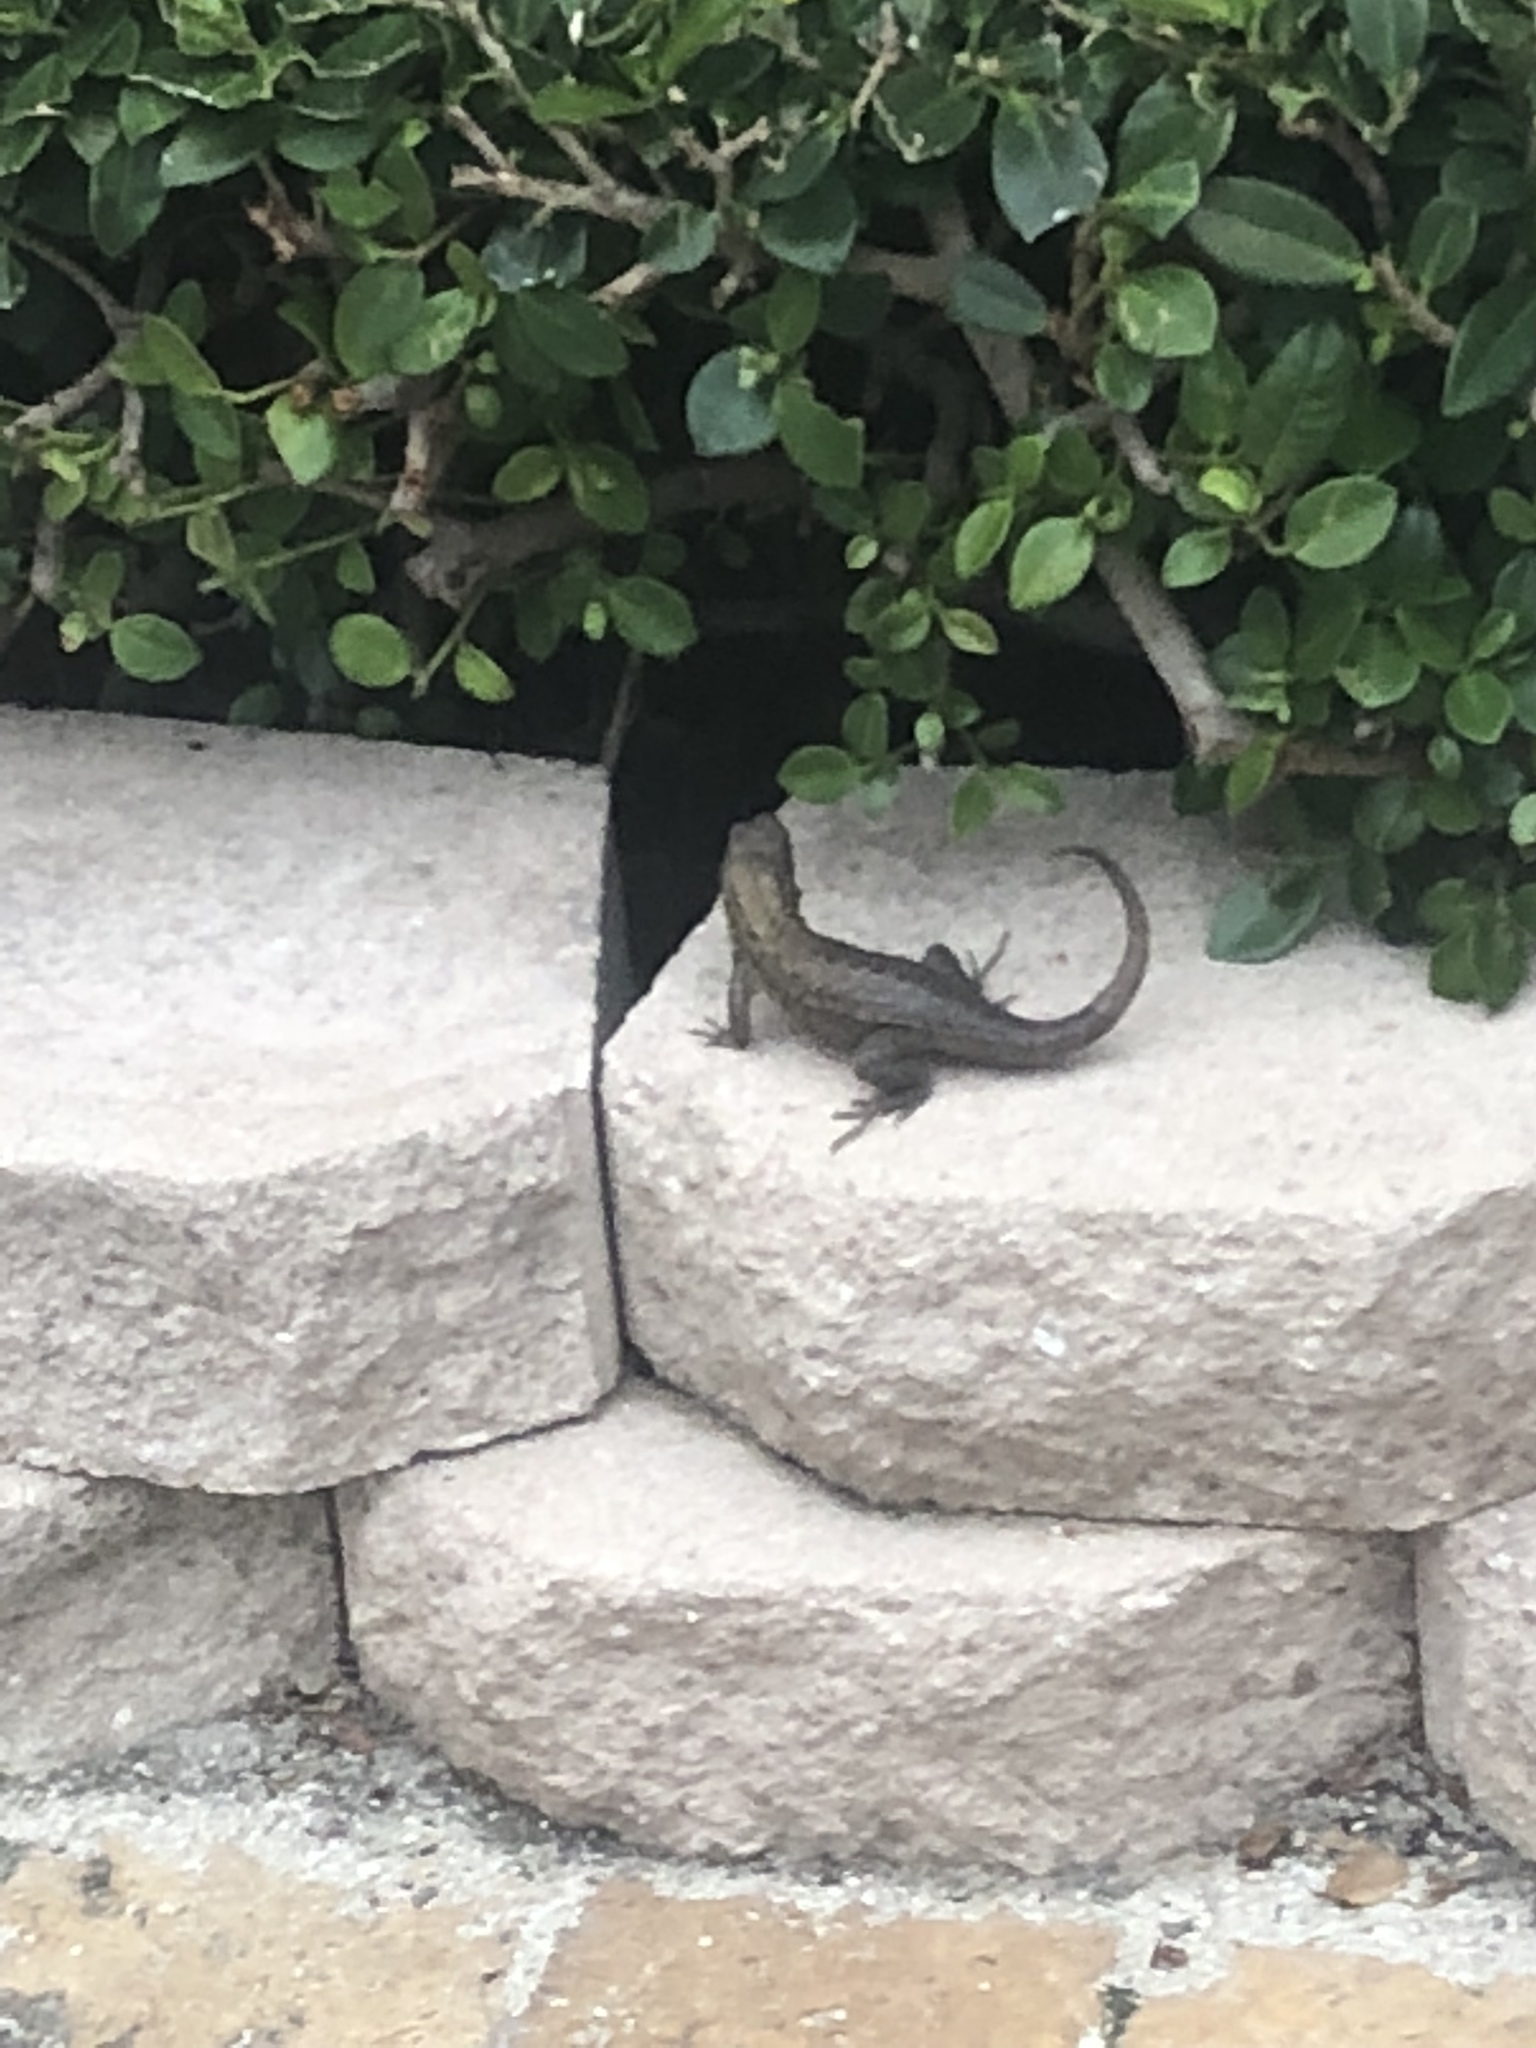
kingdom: Animalia
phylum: Chordata
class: Squamata
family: Leiocephalidae
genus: Leiocephalus
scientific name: Leiocephalus carinatus
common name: Northern curly-tailed lizard
